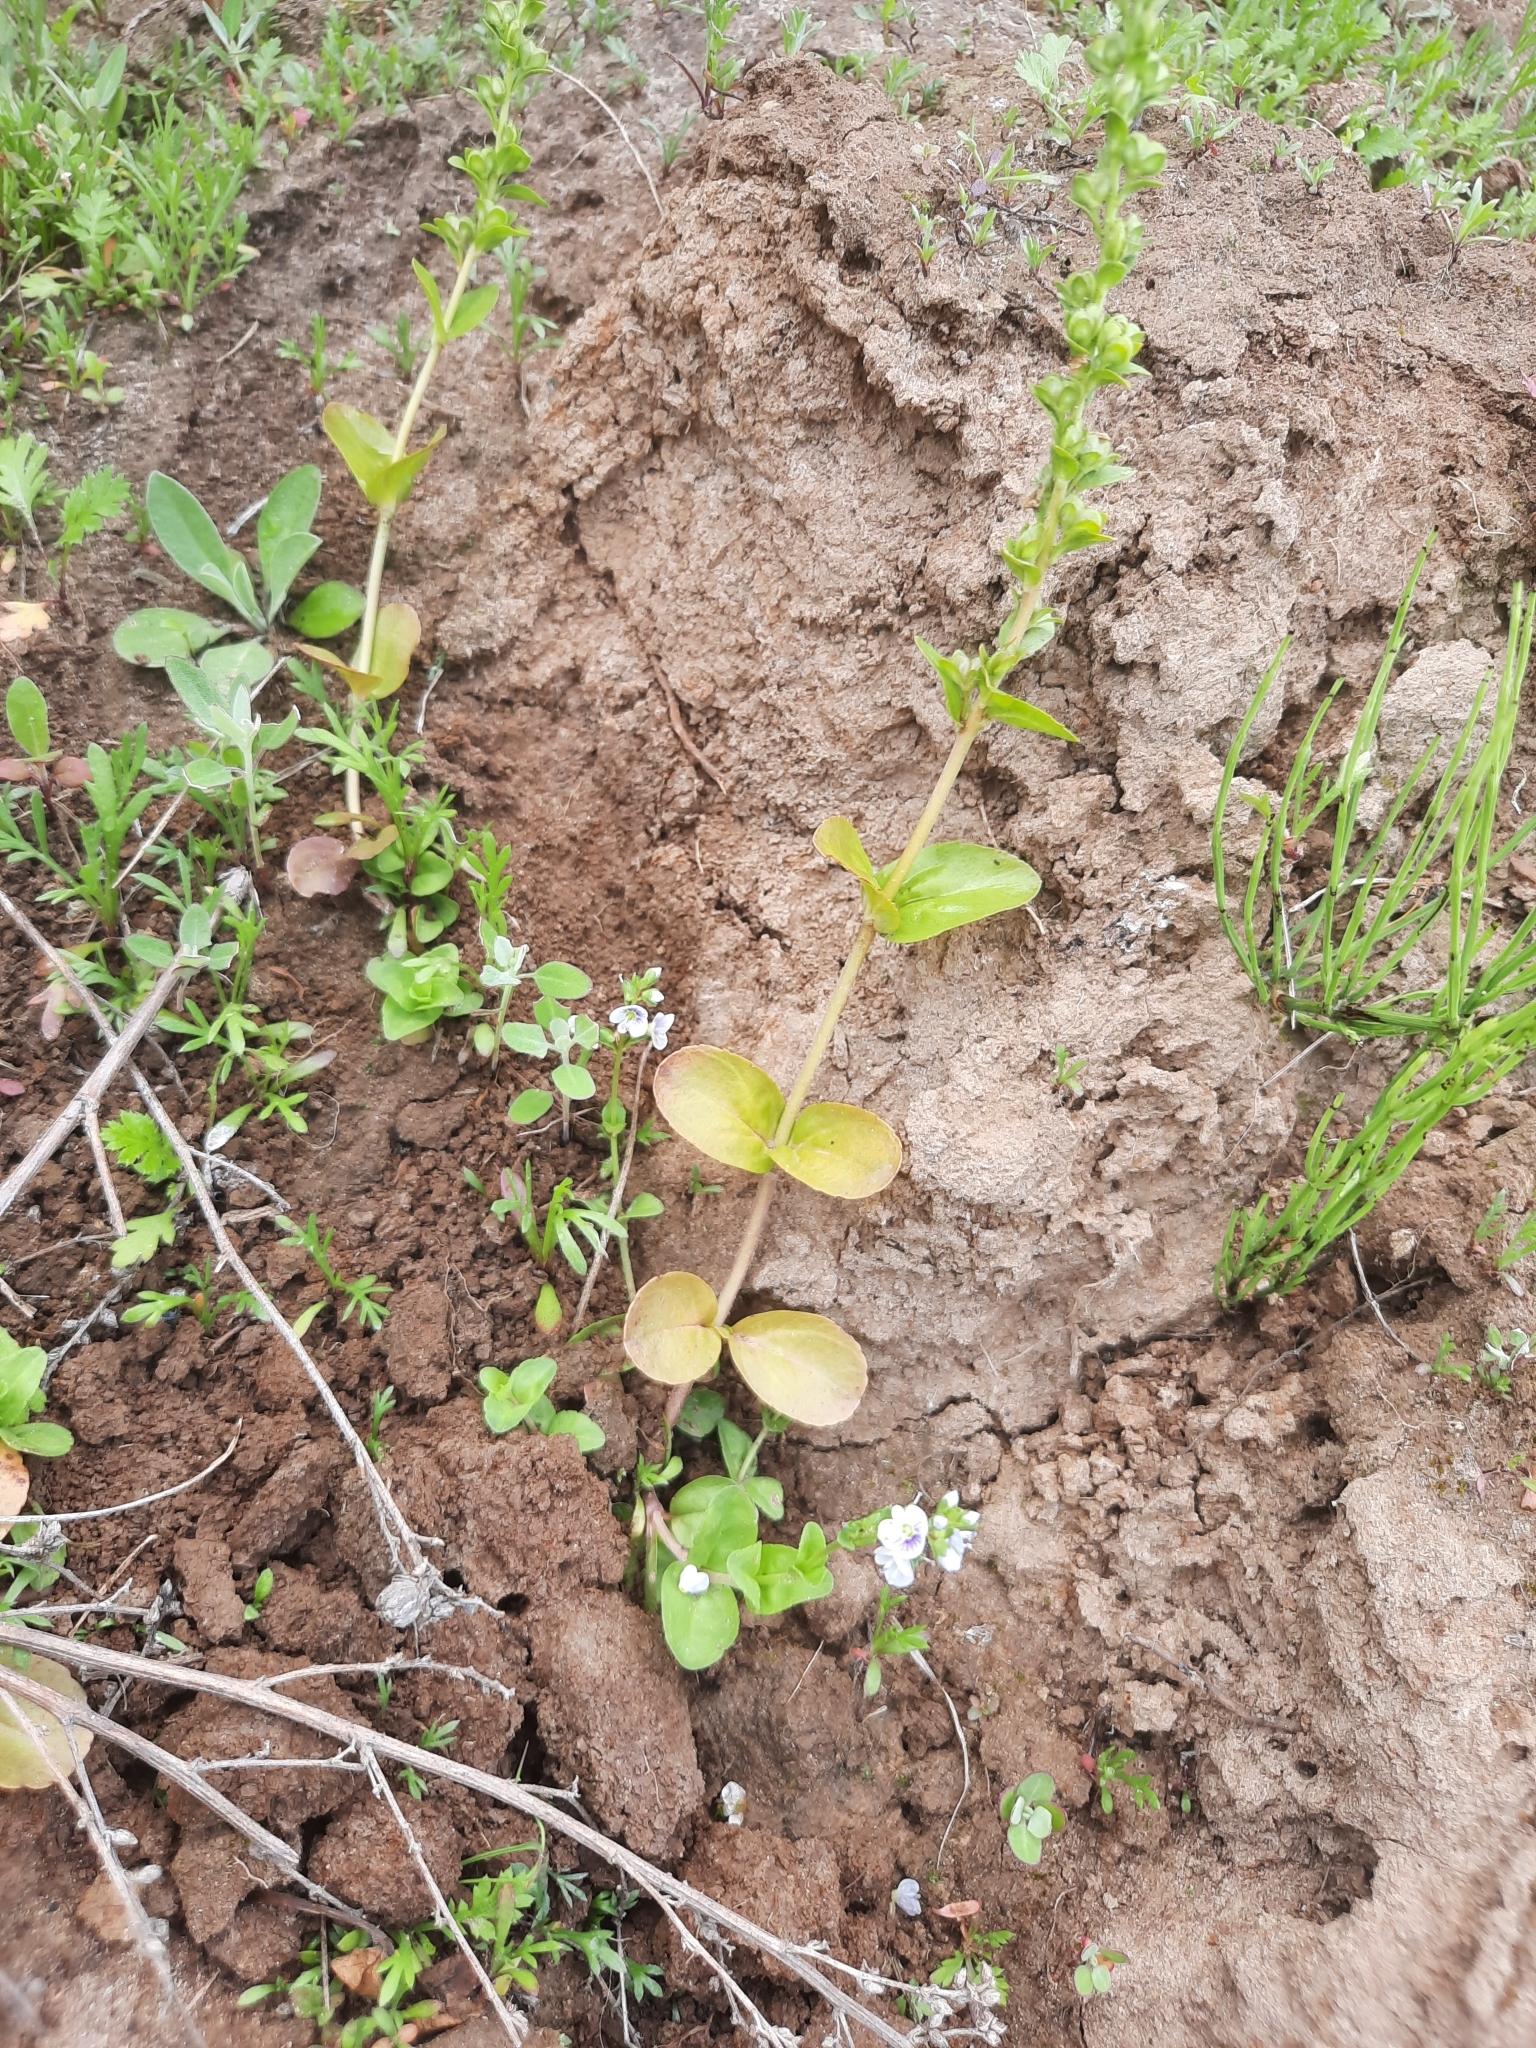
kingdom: Plantae
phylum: Tracheophyta
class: Magnoliopsida
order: Lamiales
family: Plantaginaceae
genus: Veronica
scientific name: Veronica serpyllifolia
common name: Thyme-leaved speedwell
